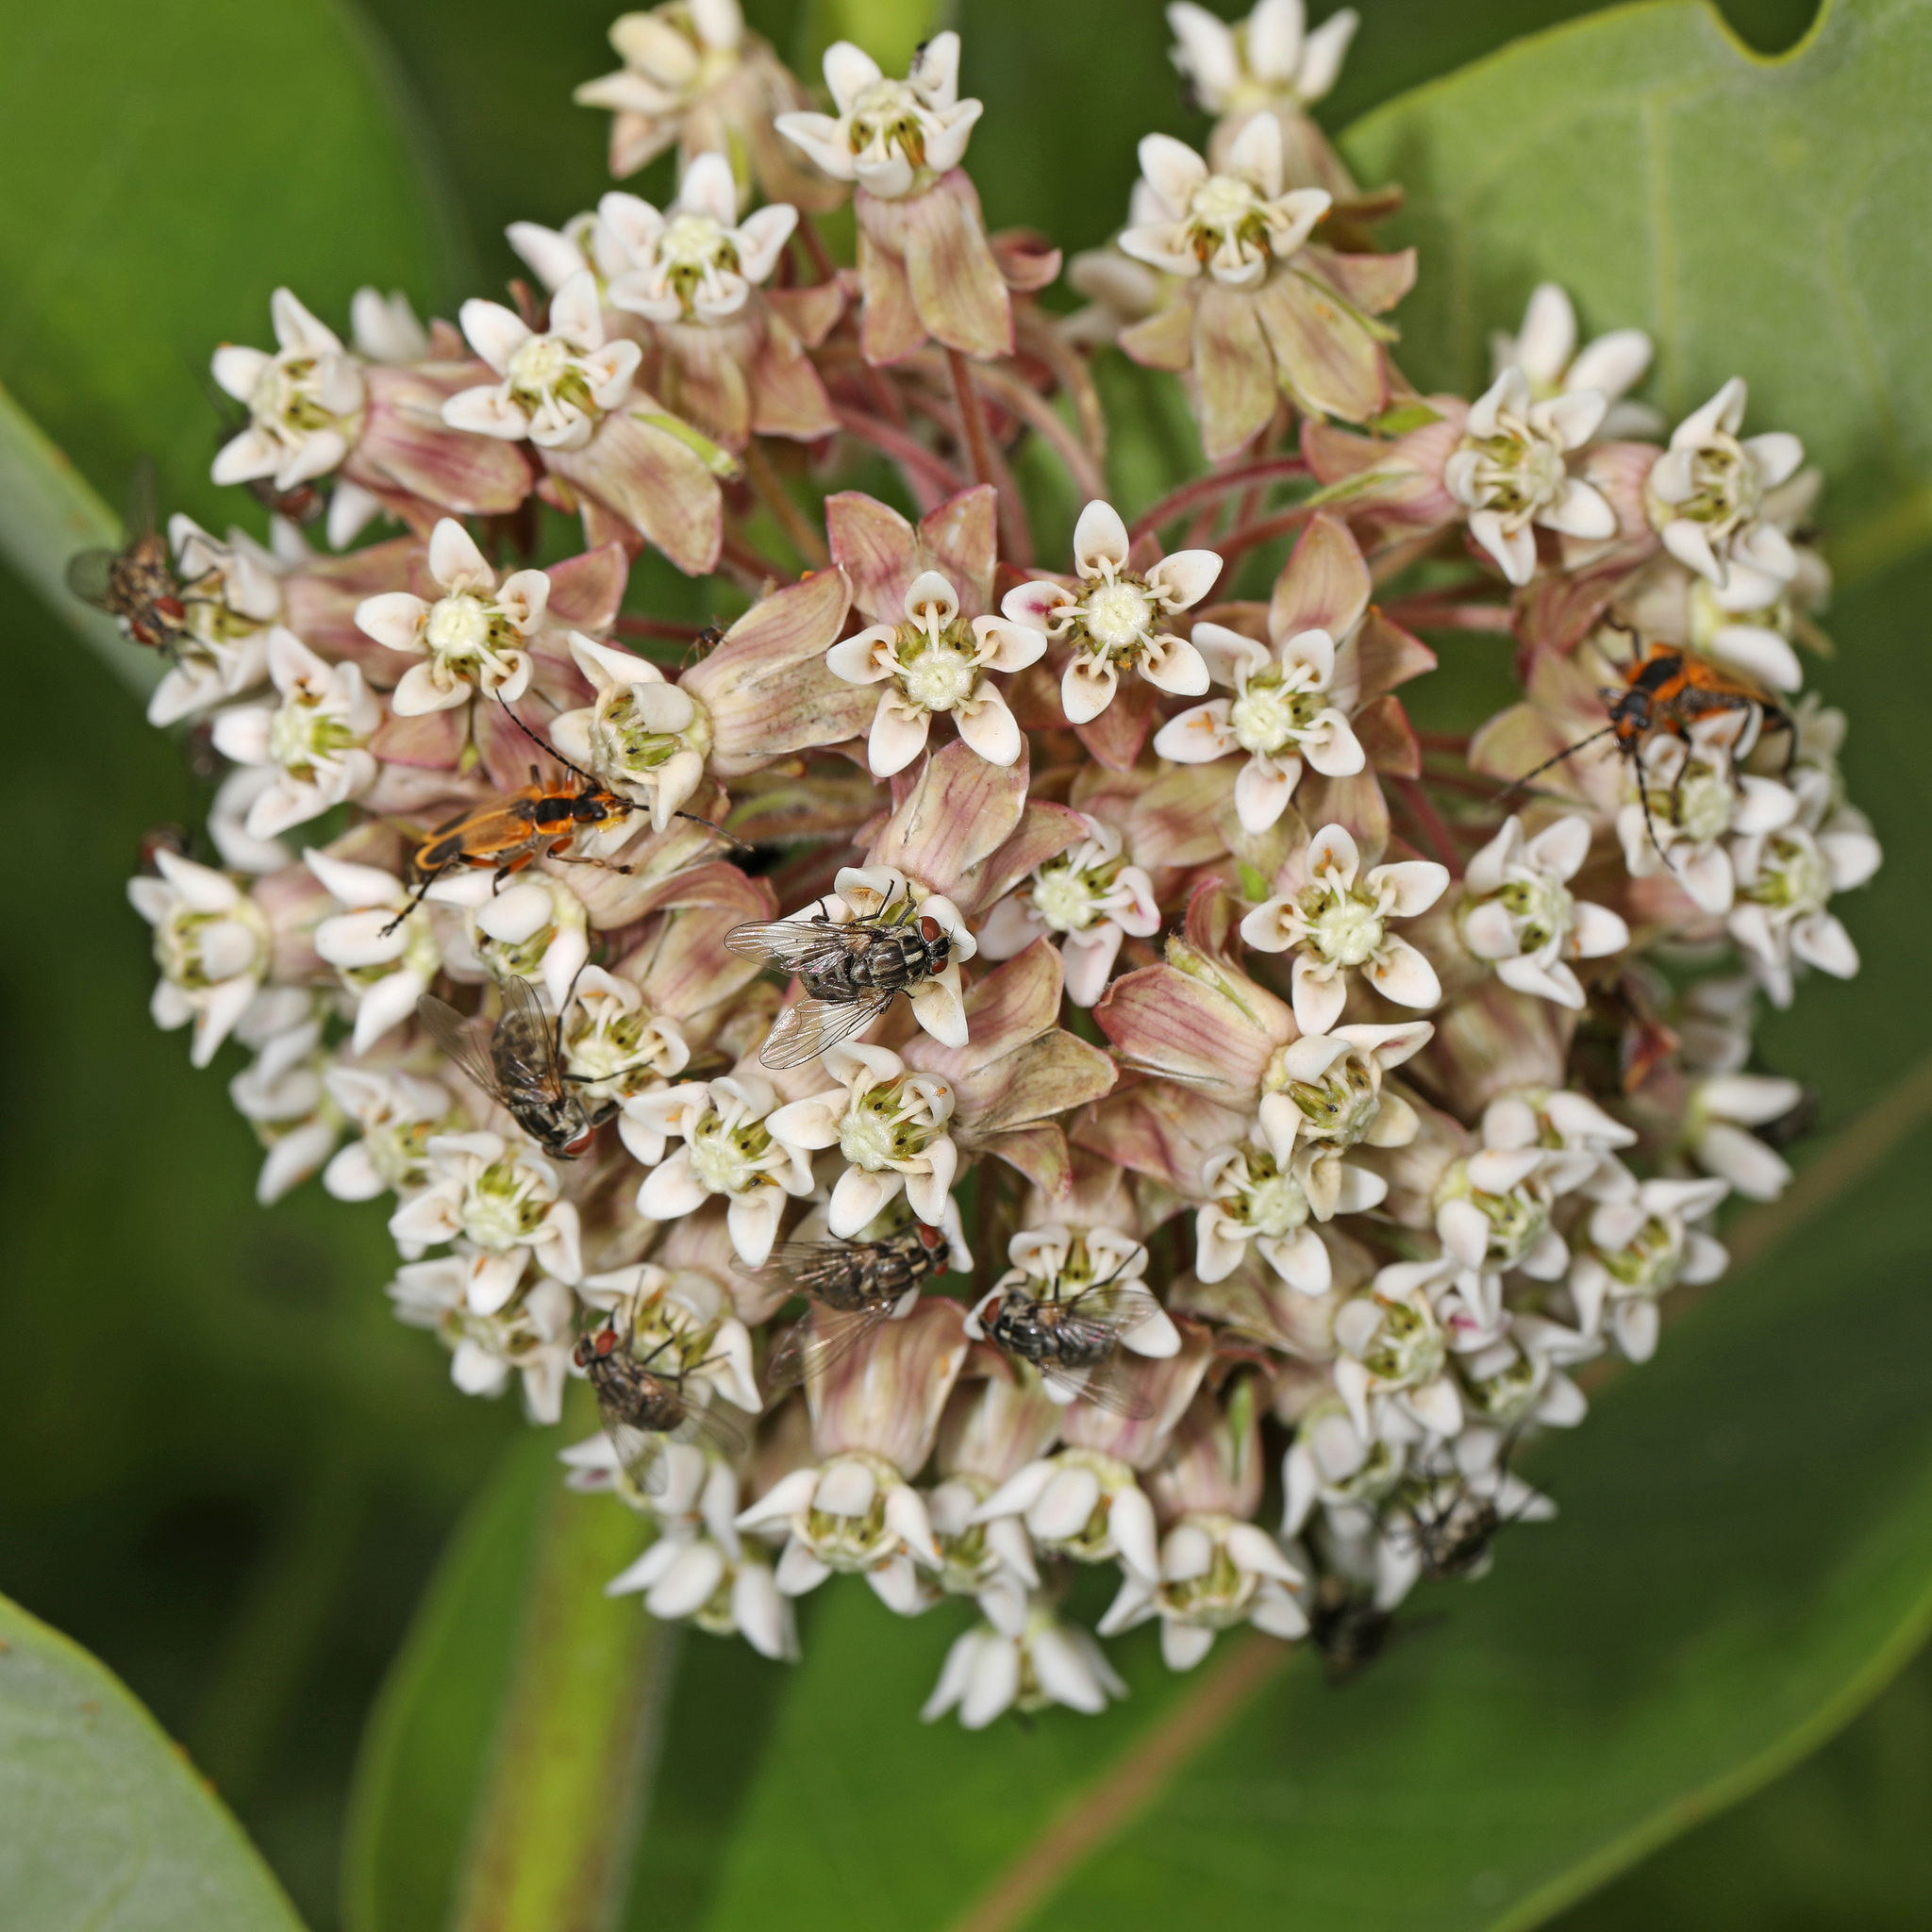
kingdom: Plantae
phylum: Tracheophyta
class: Magnoliopsida
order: Gentianales
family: Apocynaceae
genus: Asclepias
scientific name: Asclepias syriaca
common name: Common milkweed
